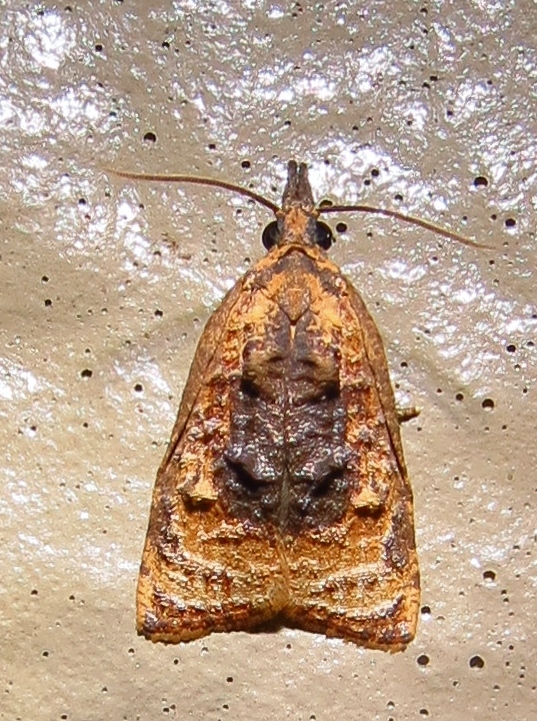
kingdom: Animalia
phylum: Arthropoda
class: Insecta
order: Lepidoptera
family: Tortricidae
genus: Platynota
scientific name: Platynota flavedana
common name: Black-shaded platynota moth
